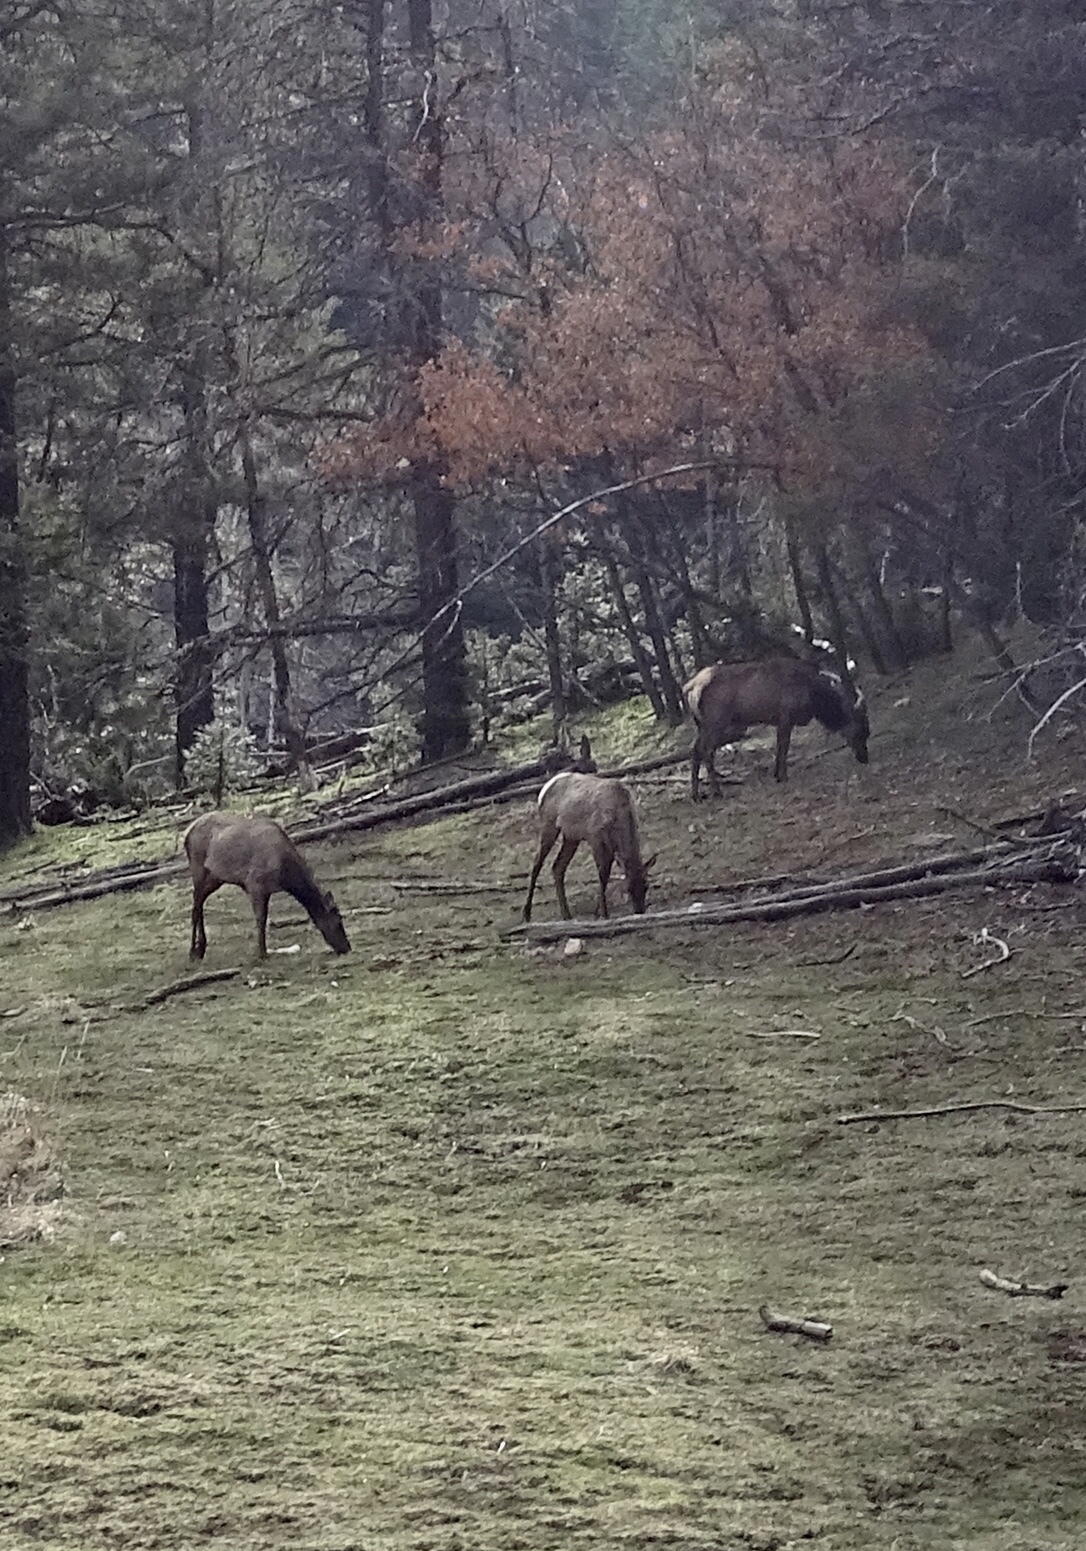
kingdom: Animalia
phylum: Chordata
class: Mammalia
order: Artiodactyla
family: Cervidae
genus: Cervus
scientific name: Cervus elaphus
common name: Red deer
